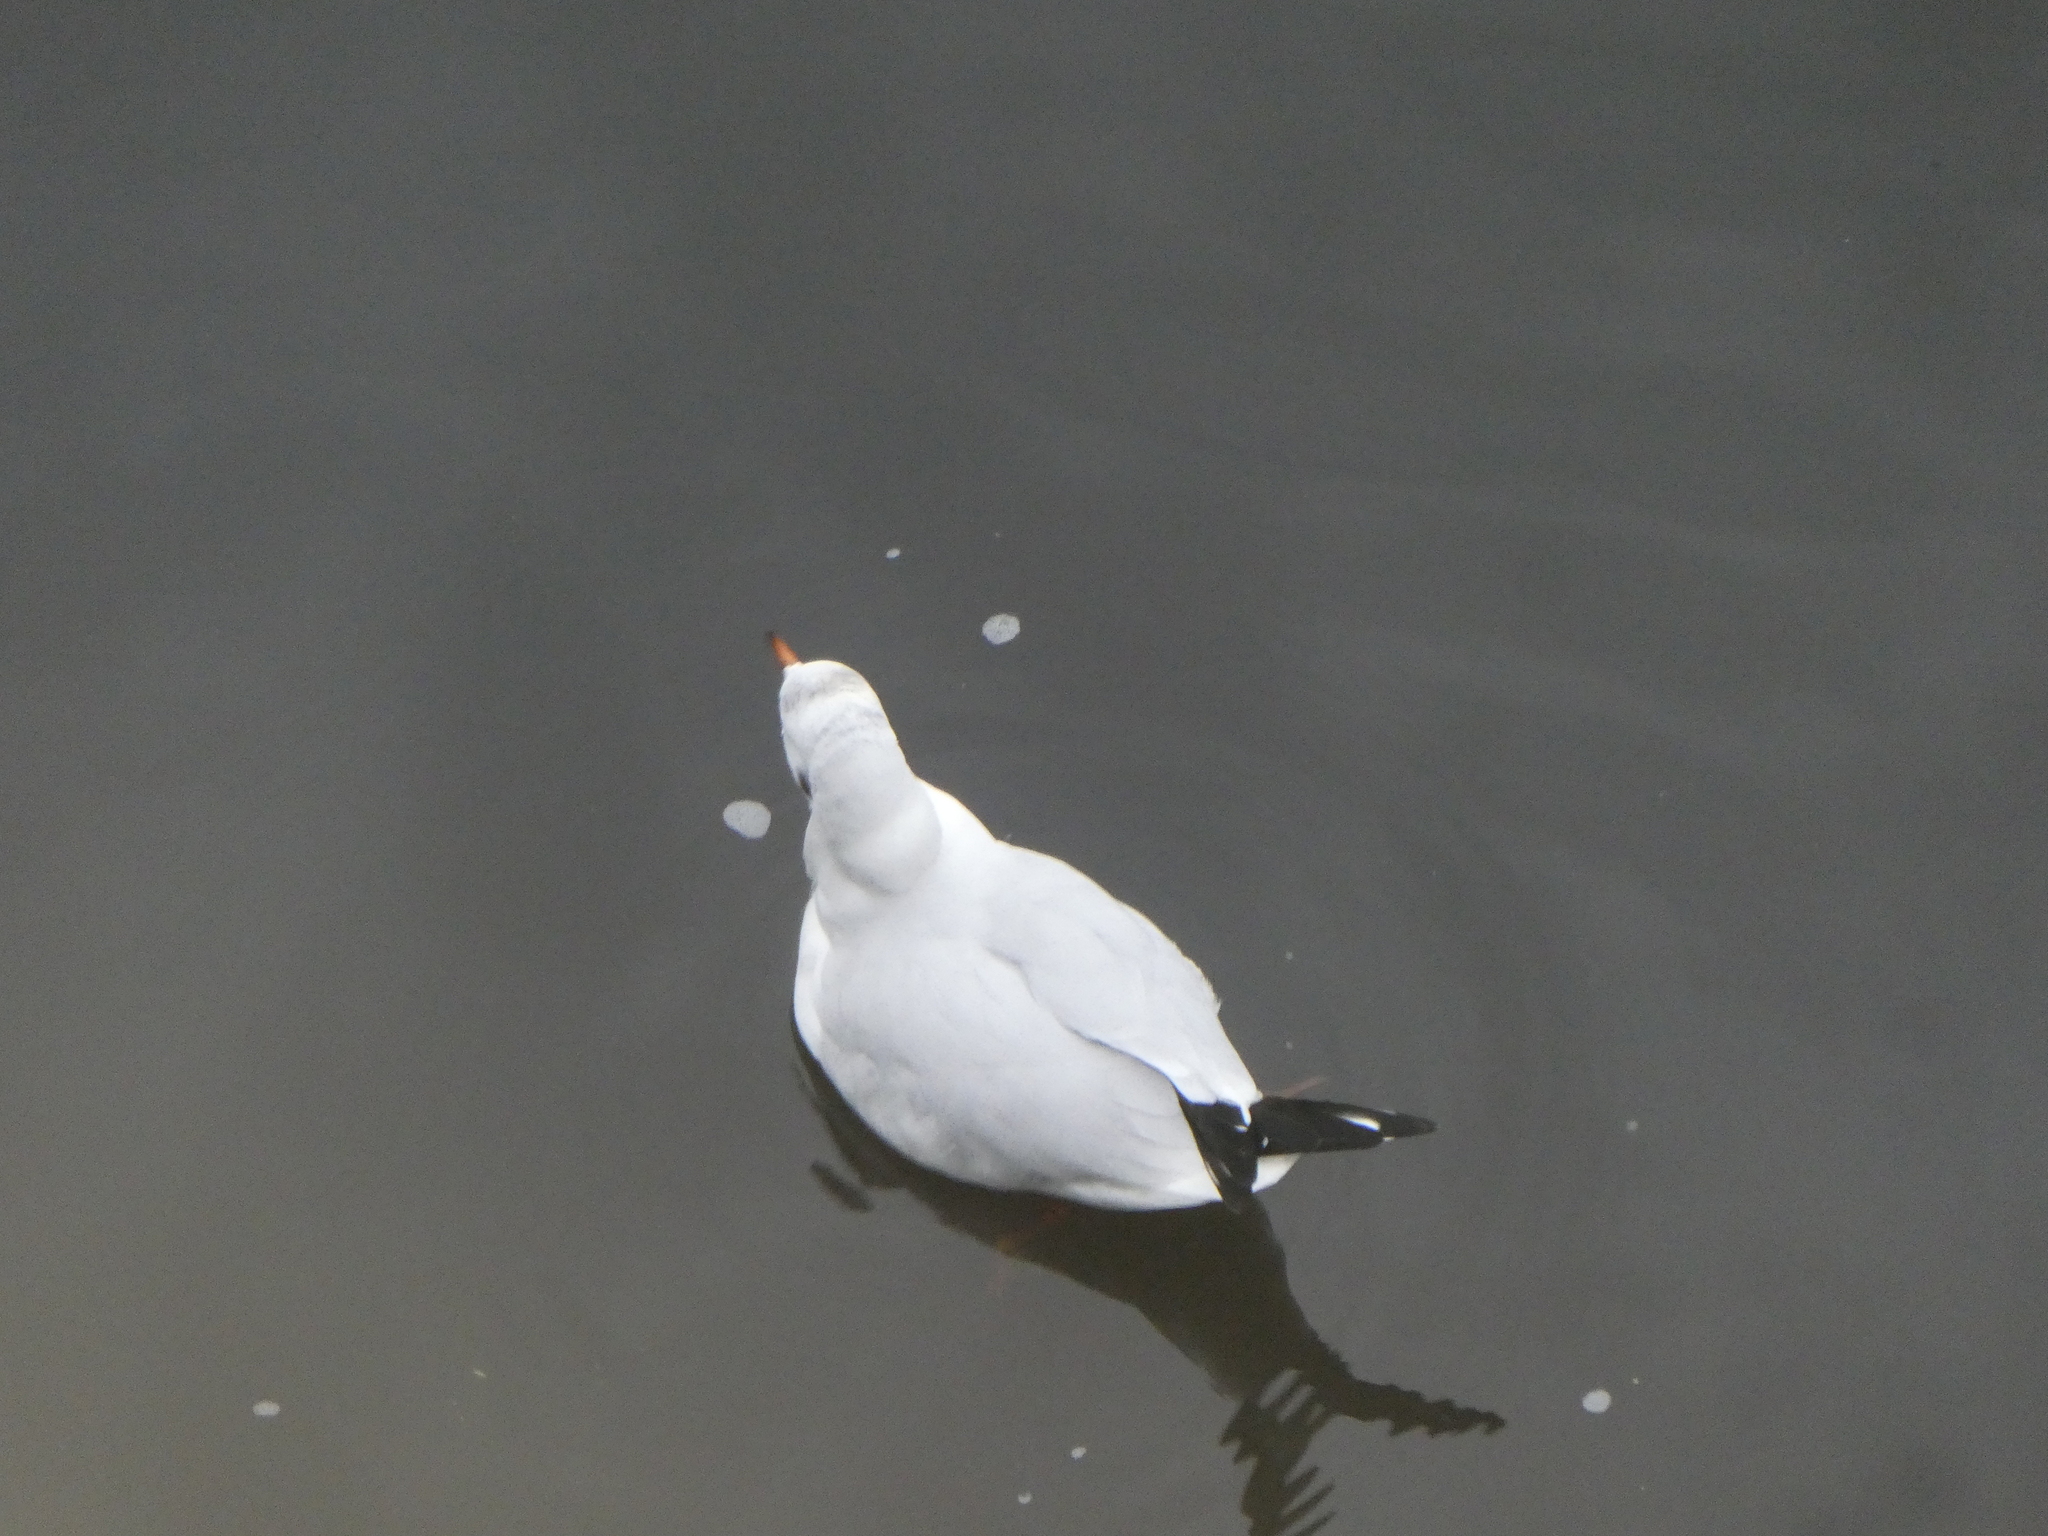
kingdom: Animalia
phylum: Chordata
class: Aves
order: Charadriiformes
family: Laridae
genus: Chroicocephalus
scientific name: Chroicocephalus ridibundus
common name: Black-headed gull
